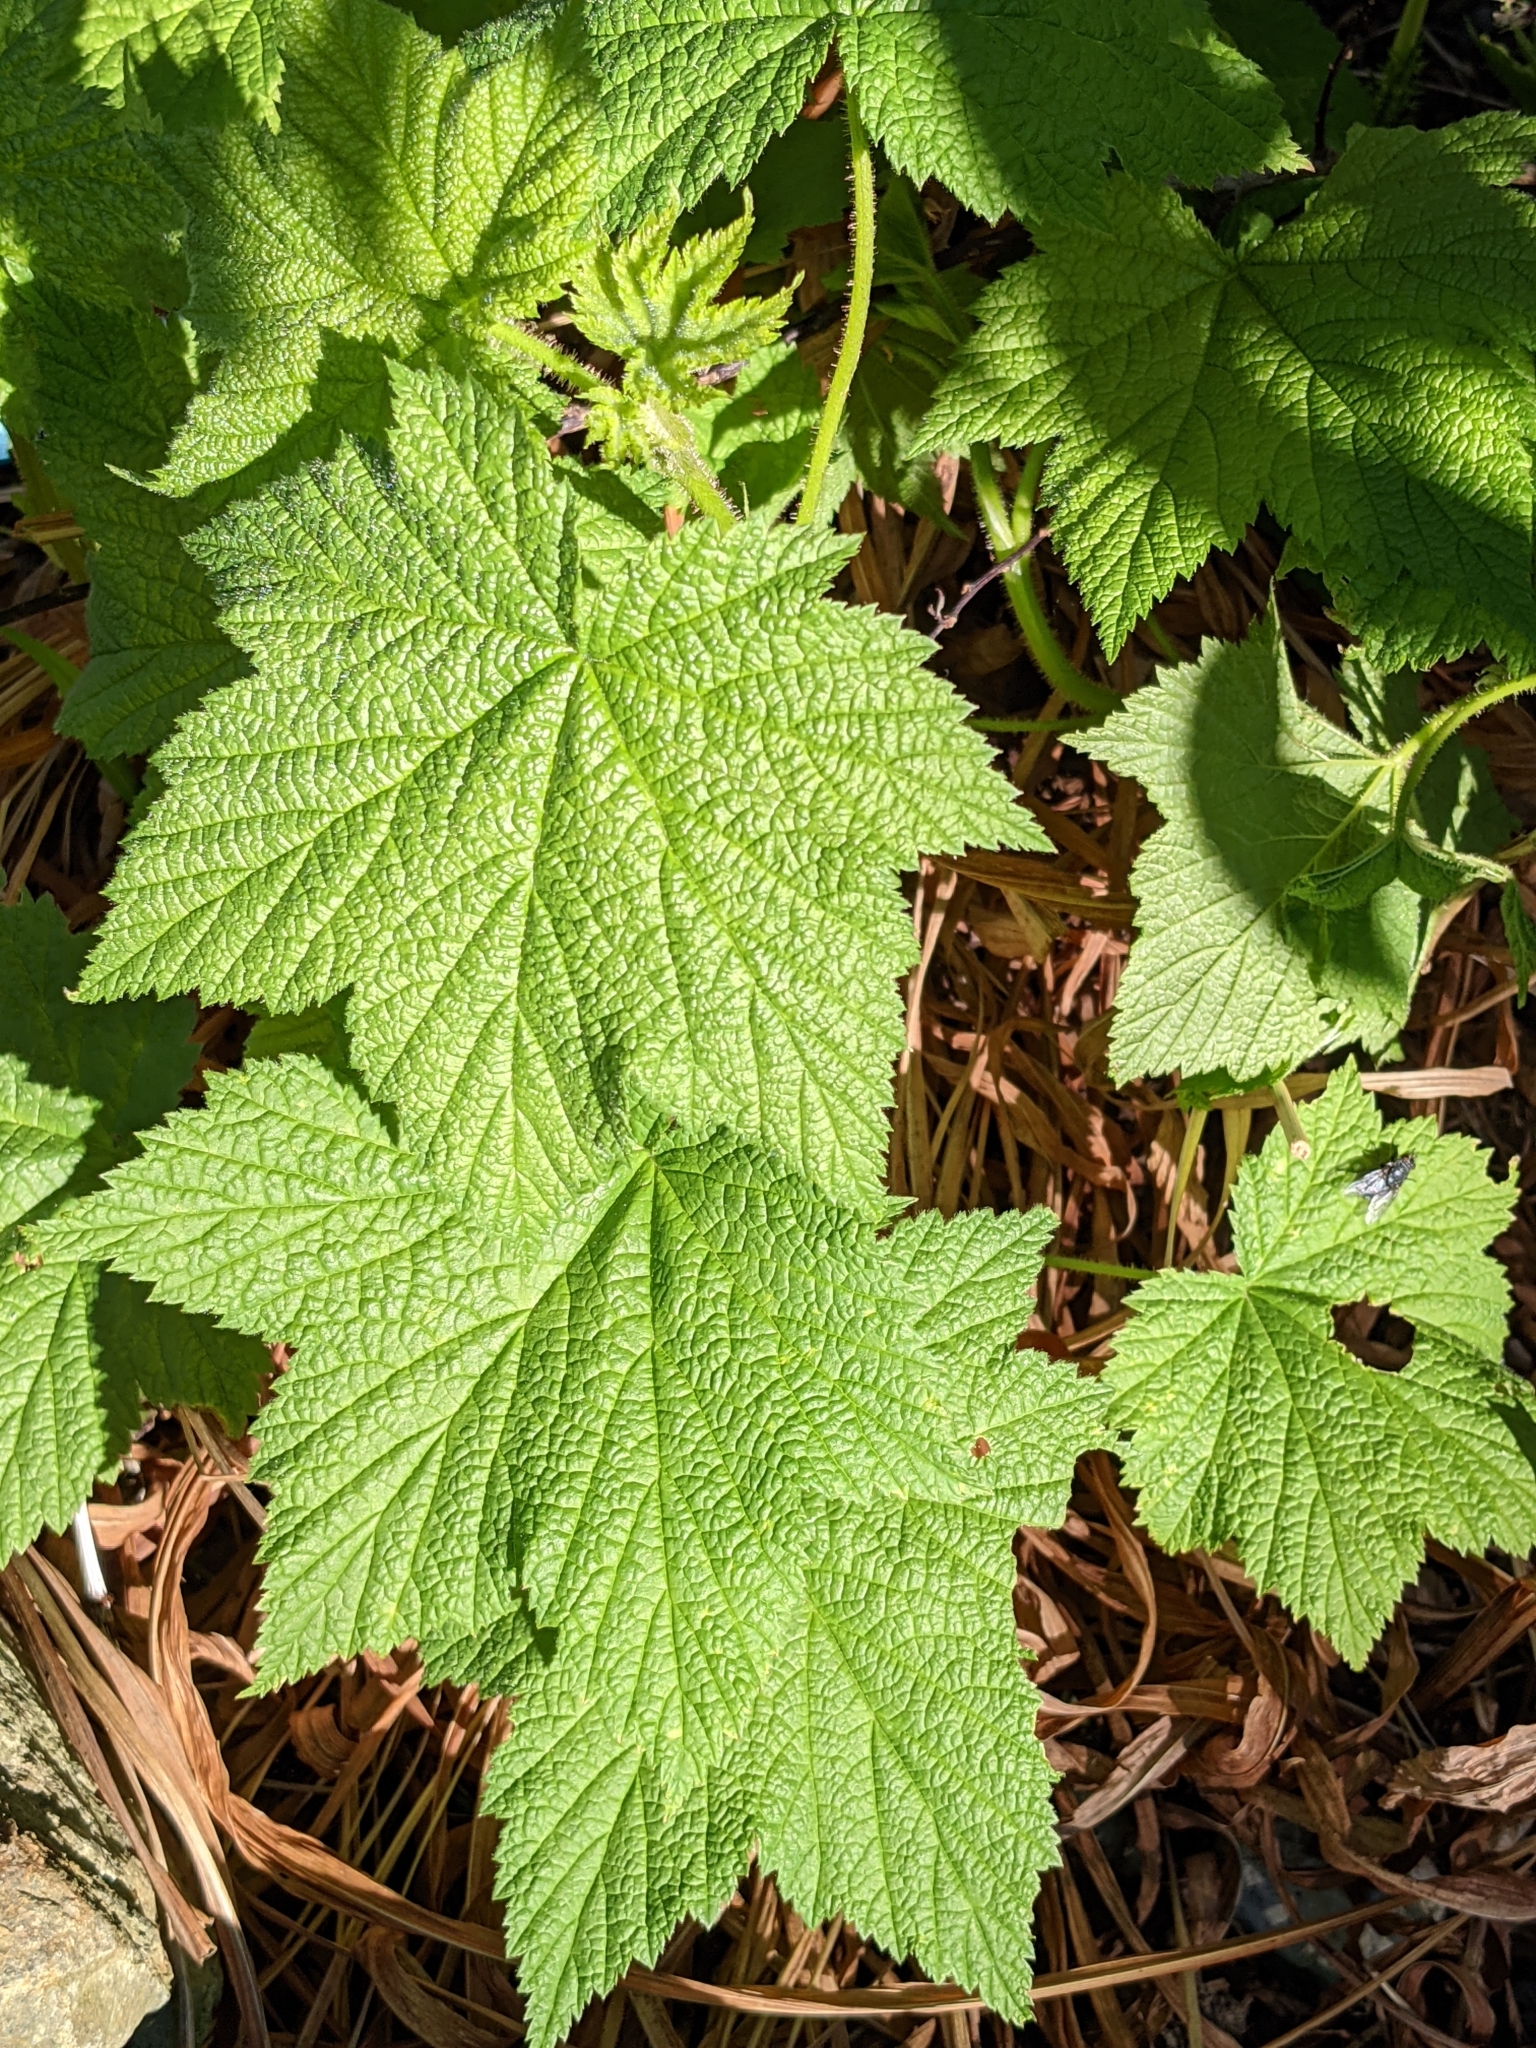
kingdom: Plantae
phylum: Tracheophyta
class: Magnoliopsida
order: Rosales
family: Rosaceae
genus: Rubus
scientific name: Rubus parviflorus
